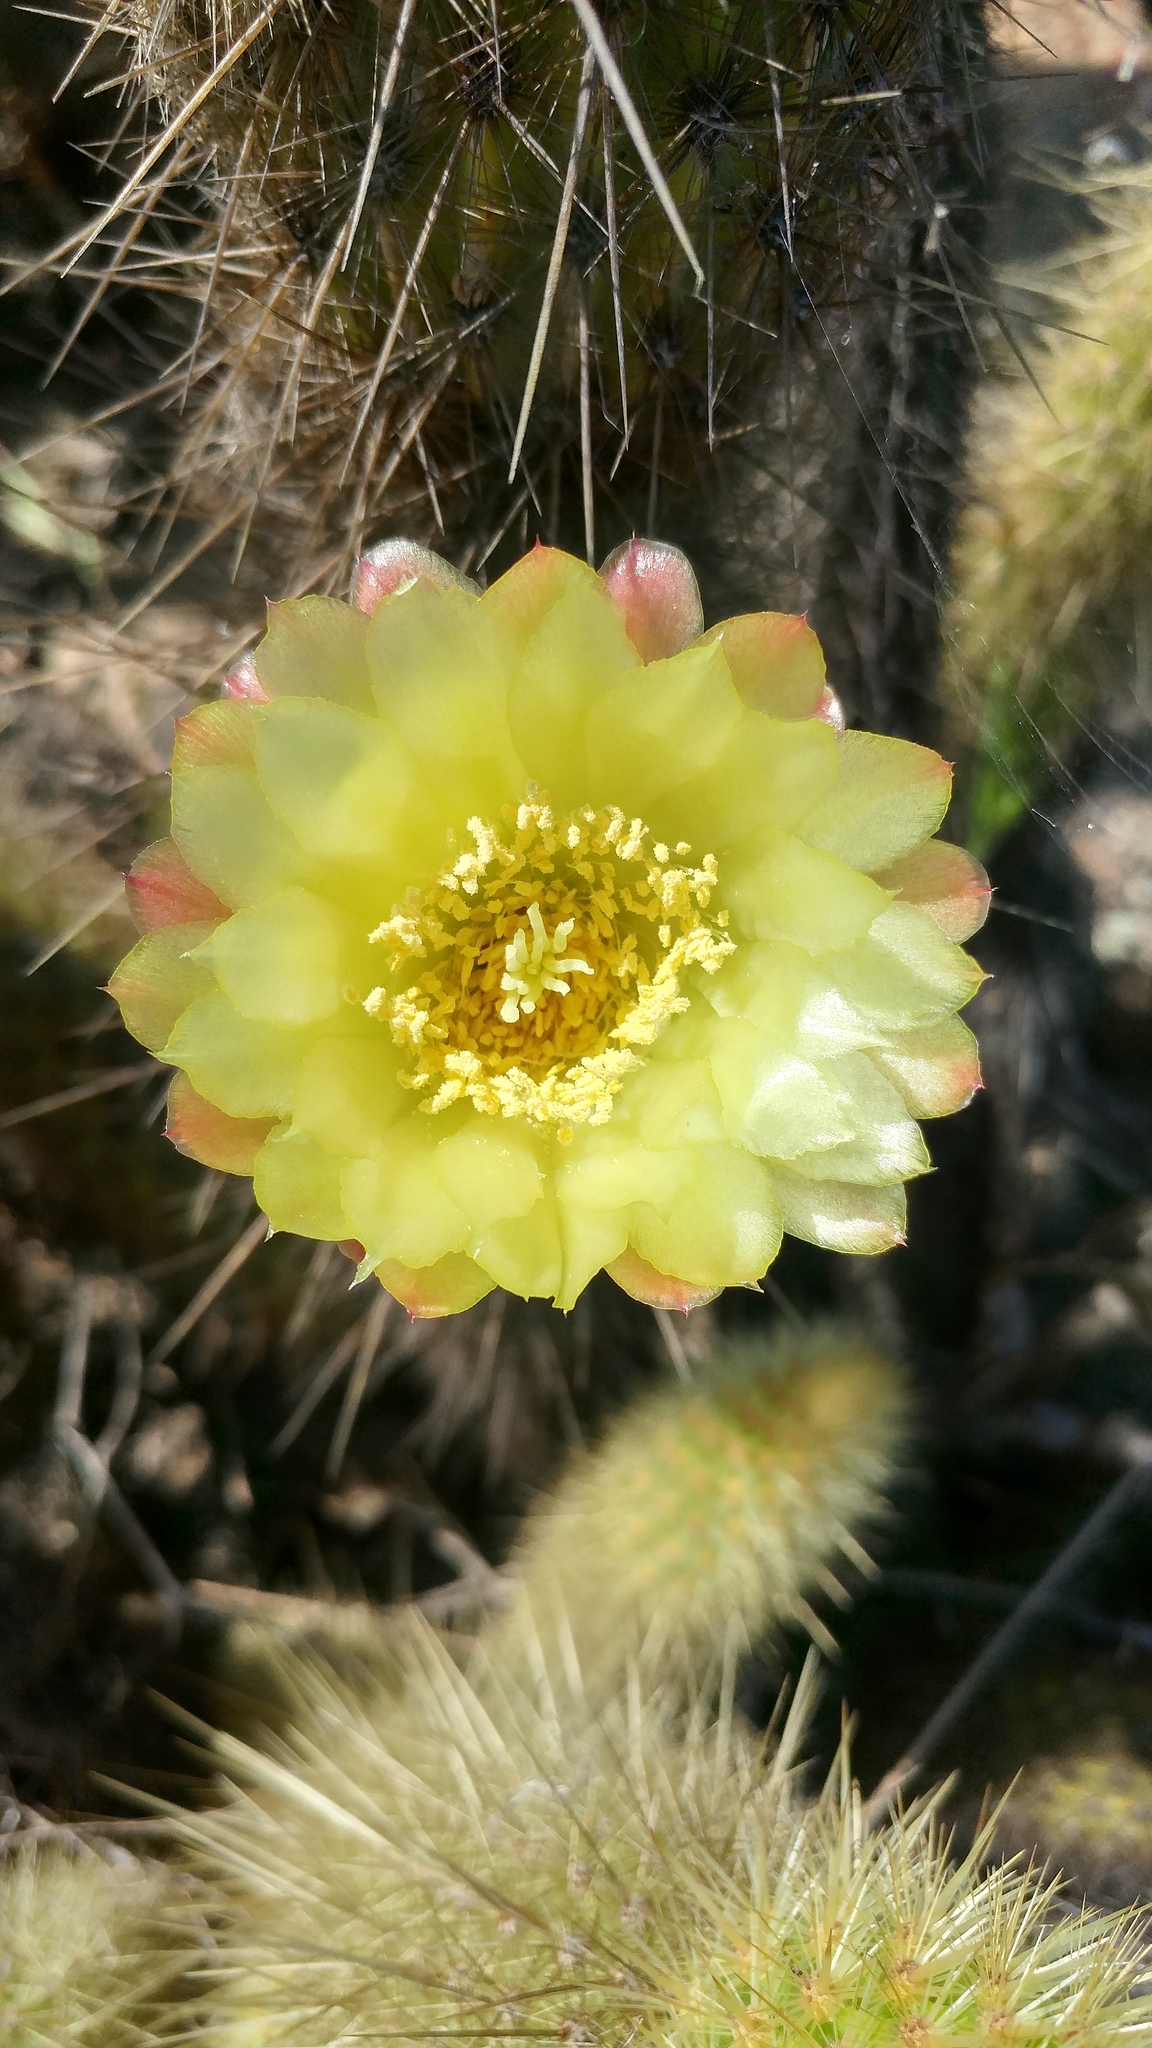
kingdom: Plantae
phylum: Tracheophyta
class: Magnoliopsida
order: Caryophyllales
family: Cactaceae
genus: Bergerocactus
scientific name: Bergerocactus emoryi
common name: Golden snakecactus
